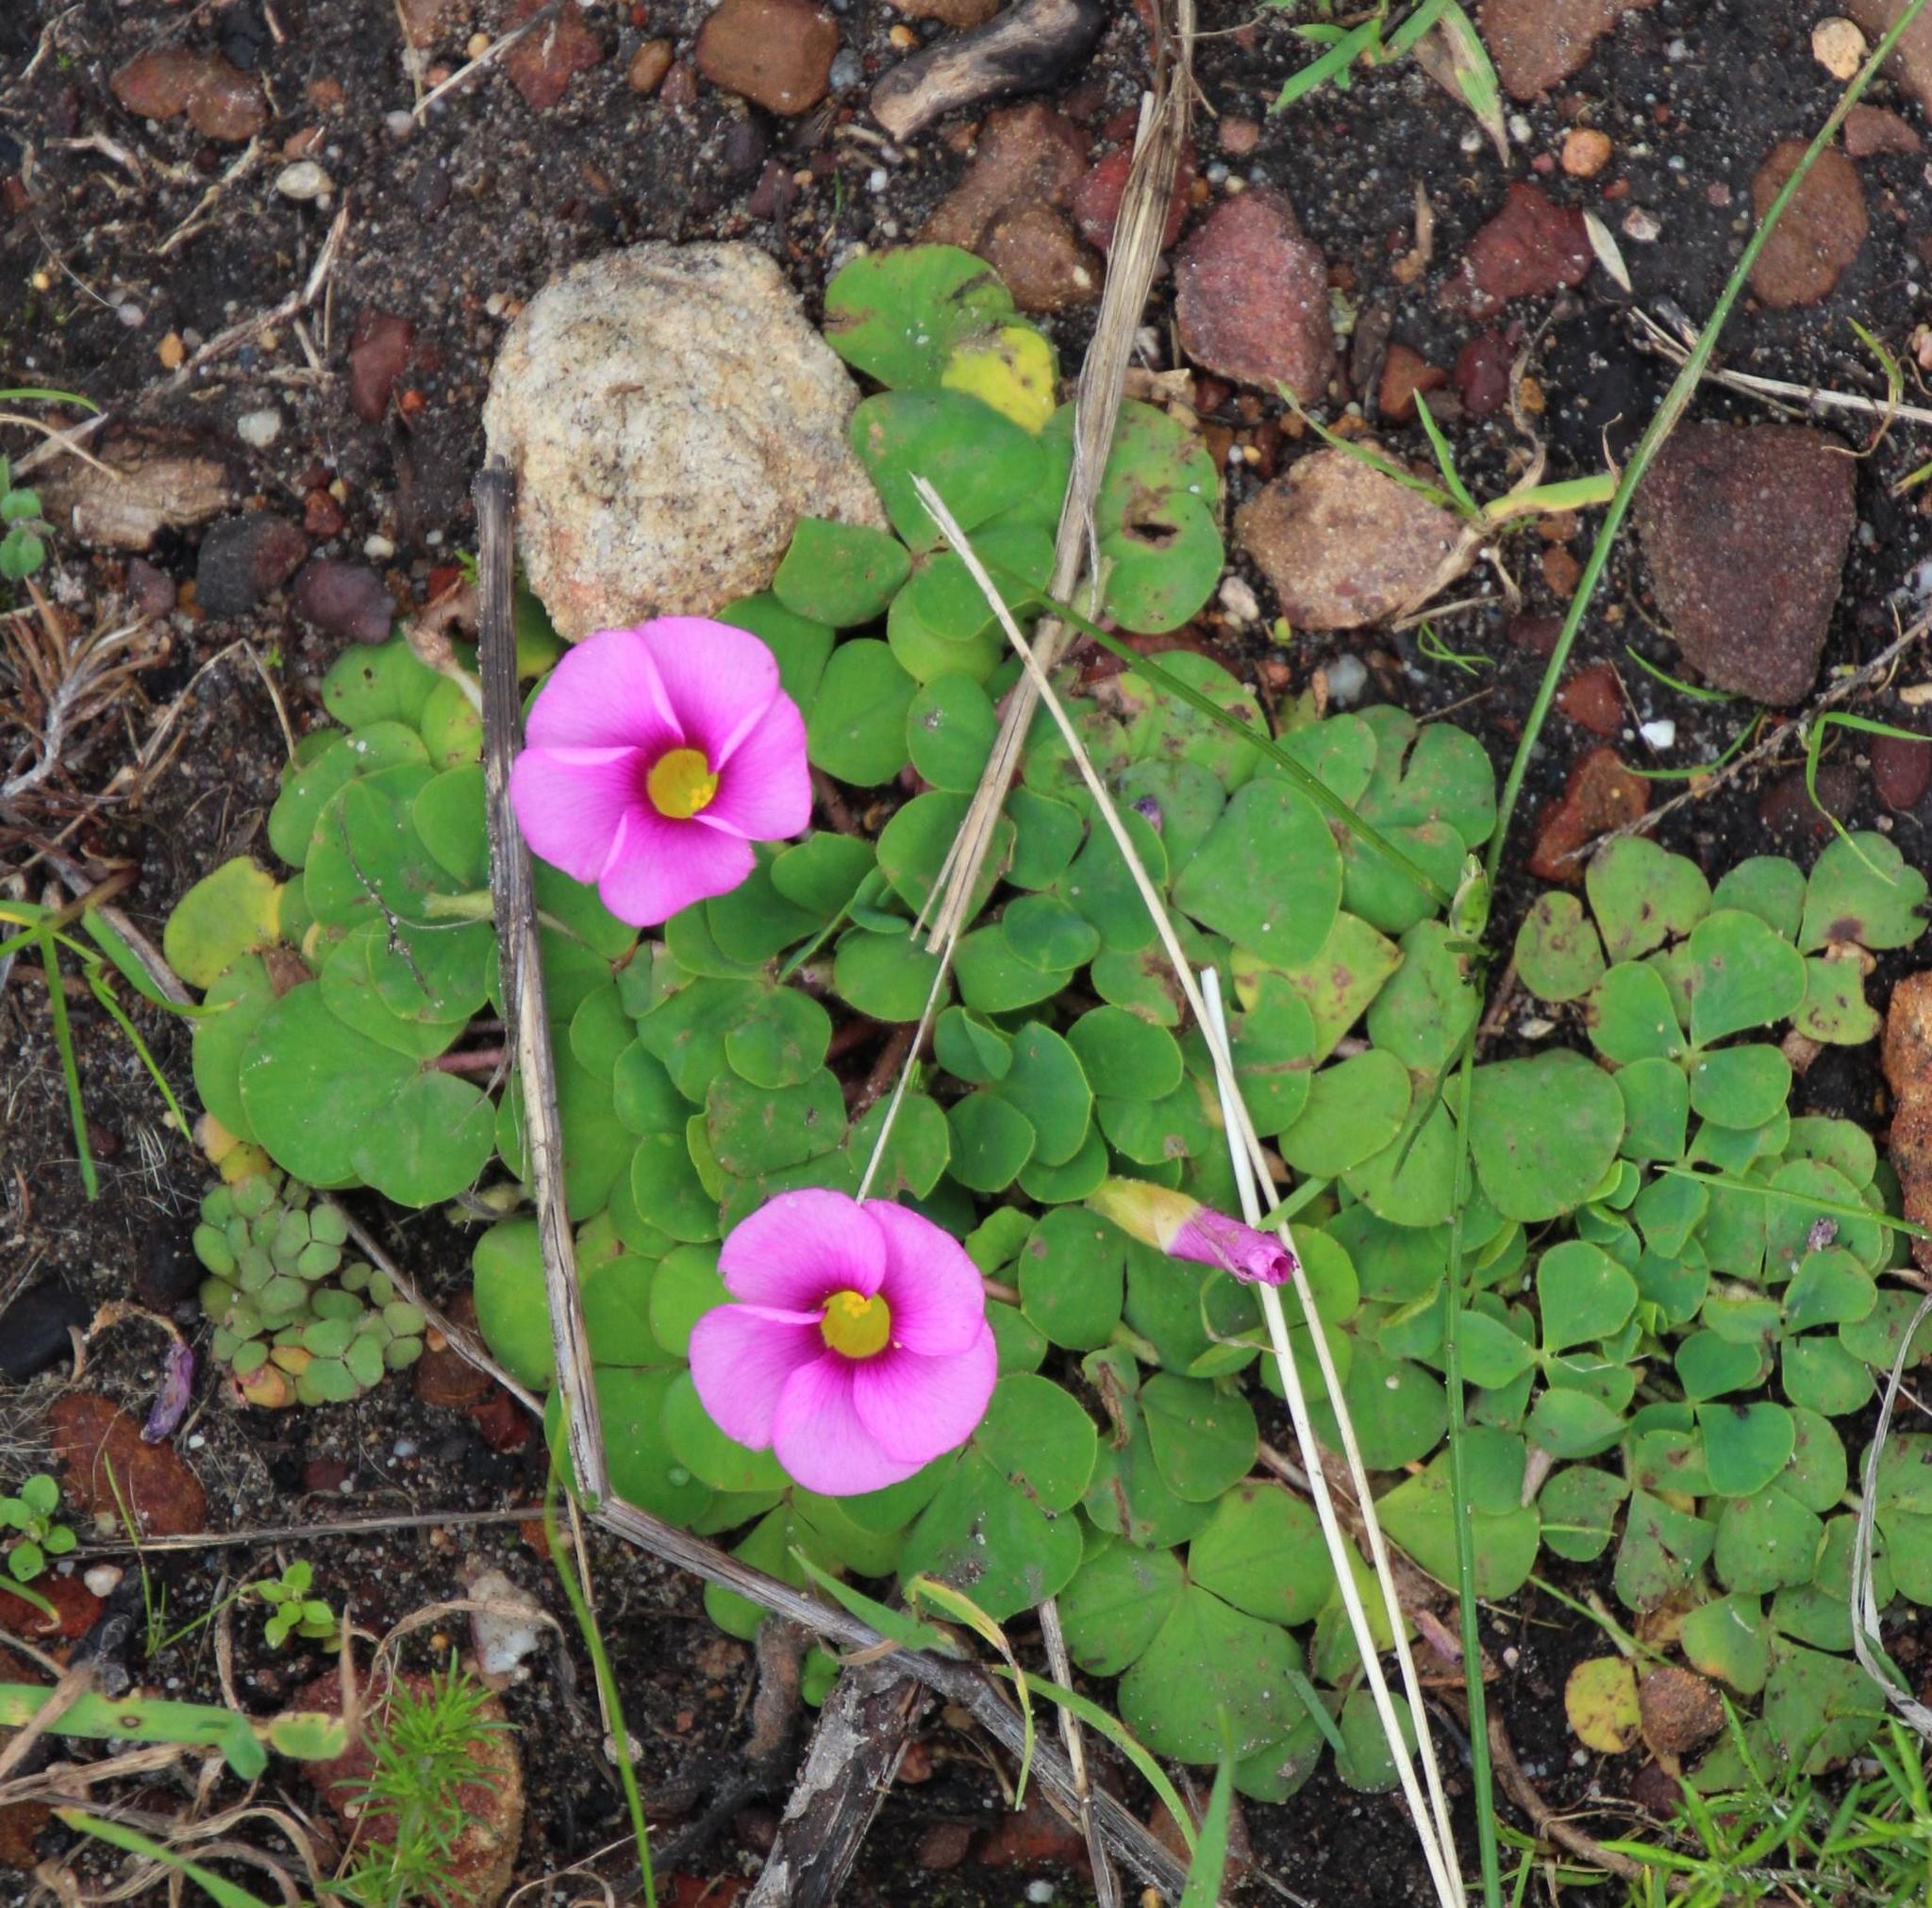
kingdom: Plantae
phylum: Tracheophyta
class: Magnoliopsida
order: Oxalidales
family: Oxalidaceae
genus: Oxalis
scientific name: Oxalis purpurea
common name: Purple woodsorrel
